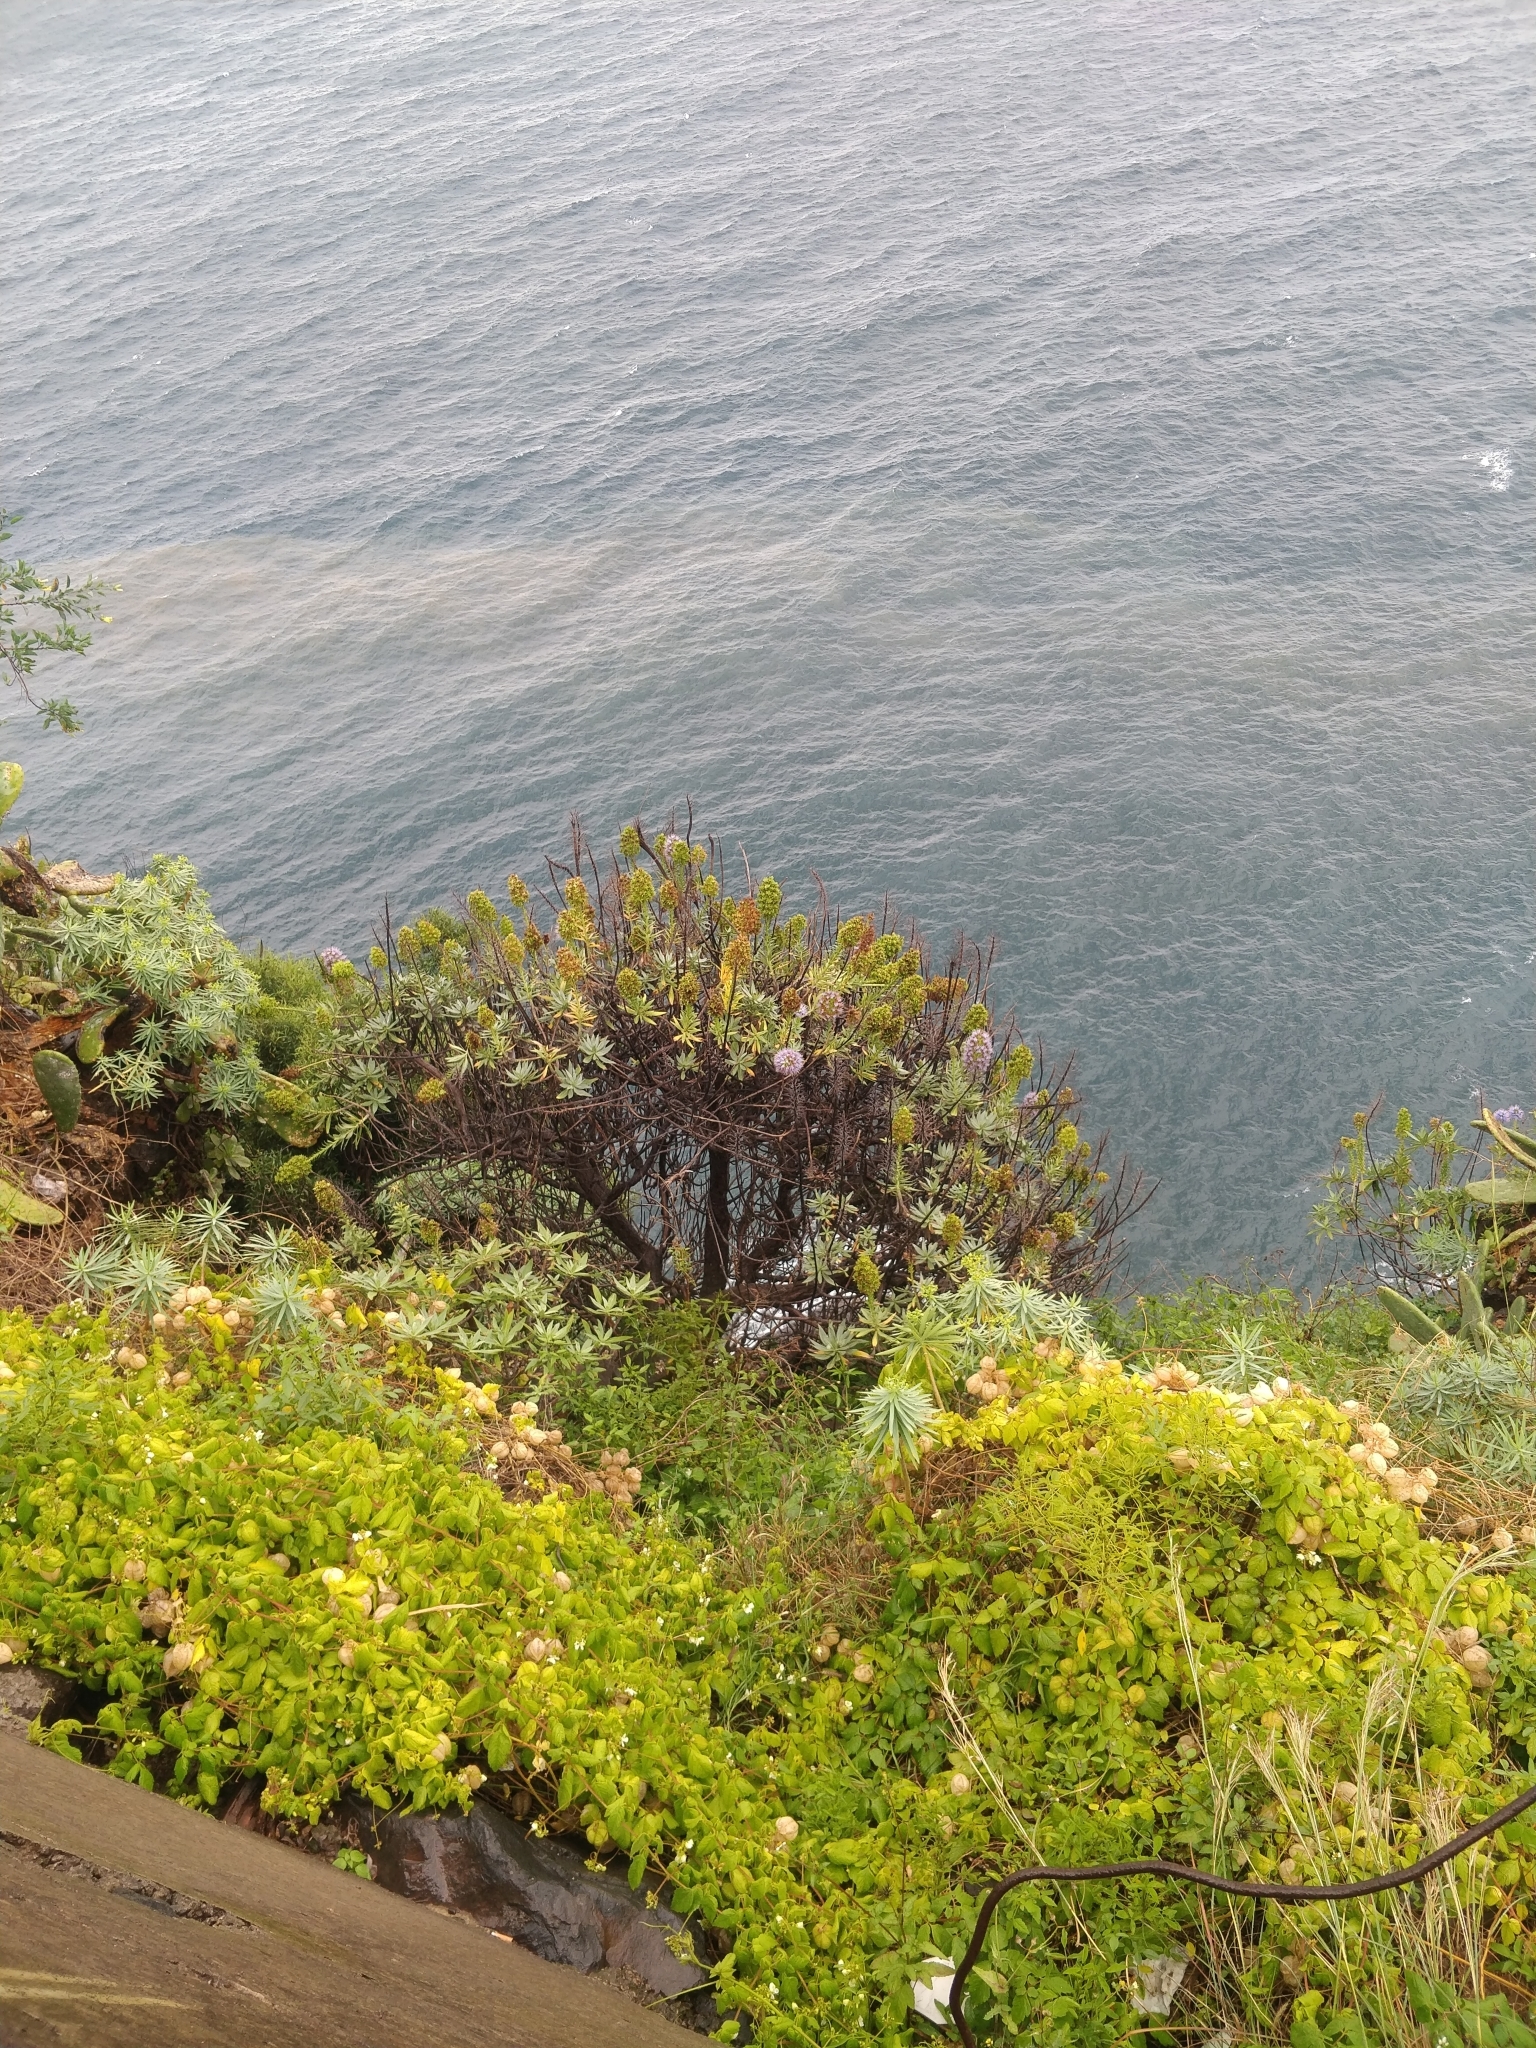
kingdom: Plantae
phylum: Tracheophyta
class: Magnoliopsida
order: Boraginales
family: Boraginaceae
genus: Echium
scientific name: Echium nervosum
